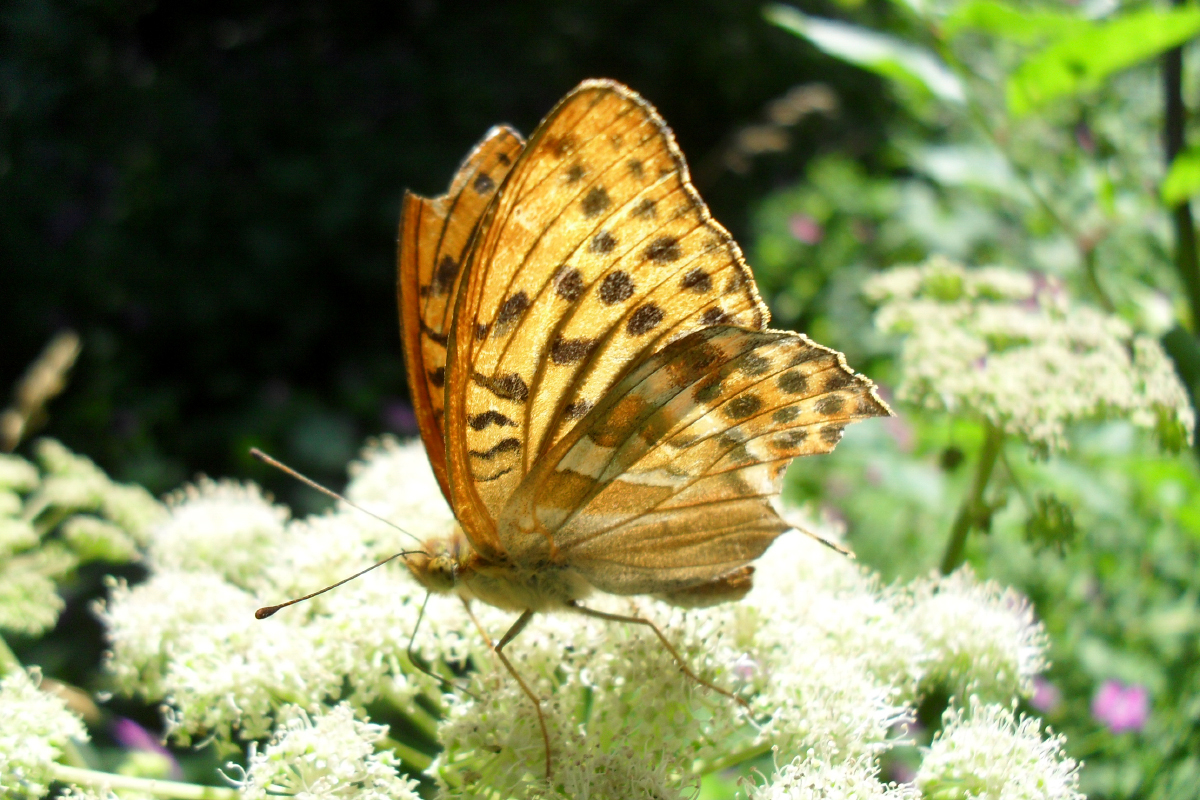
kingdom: Animalia
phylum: Arthropoda
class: Insecta
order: Lepidoptera
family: Nymphalidae
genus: Argynnis
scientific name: Argynnis paphia
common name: Silver-washed fritillary
